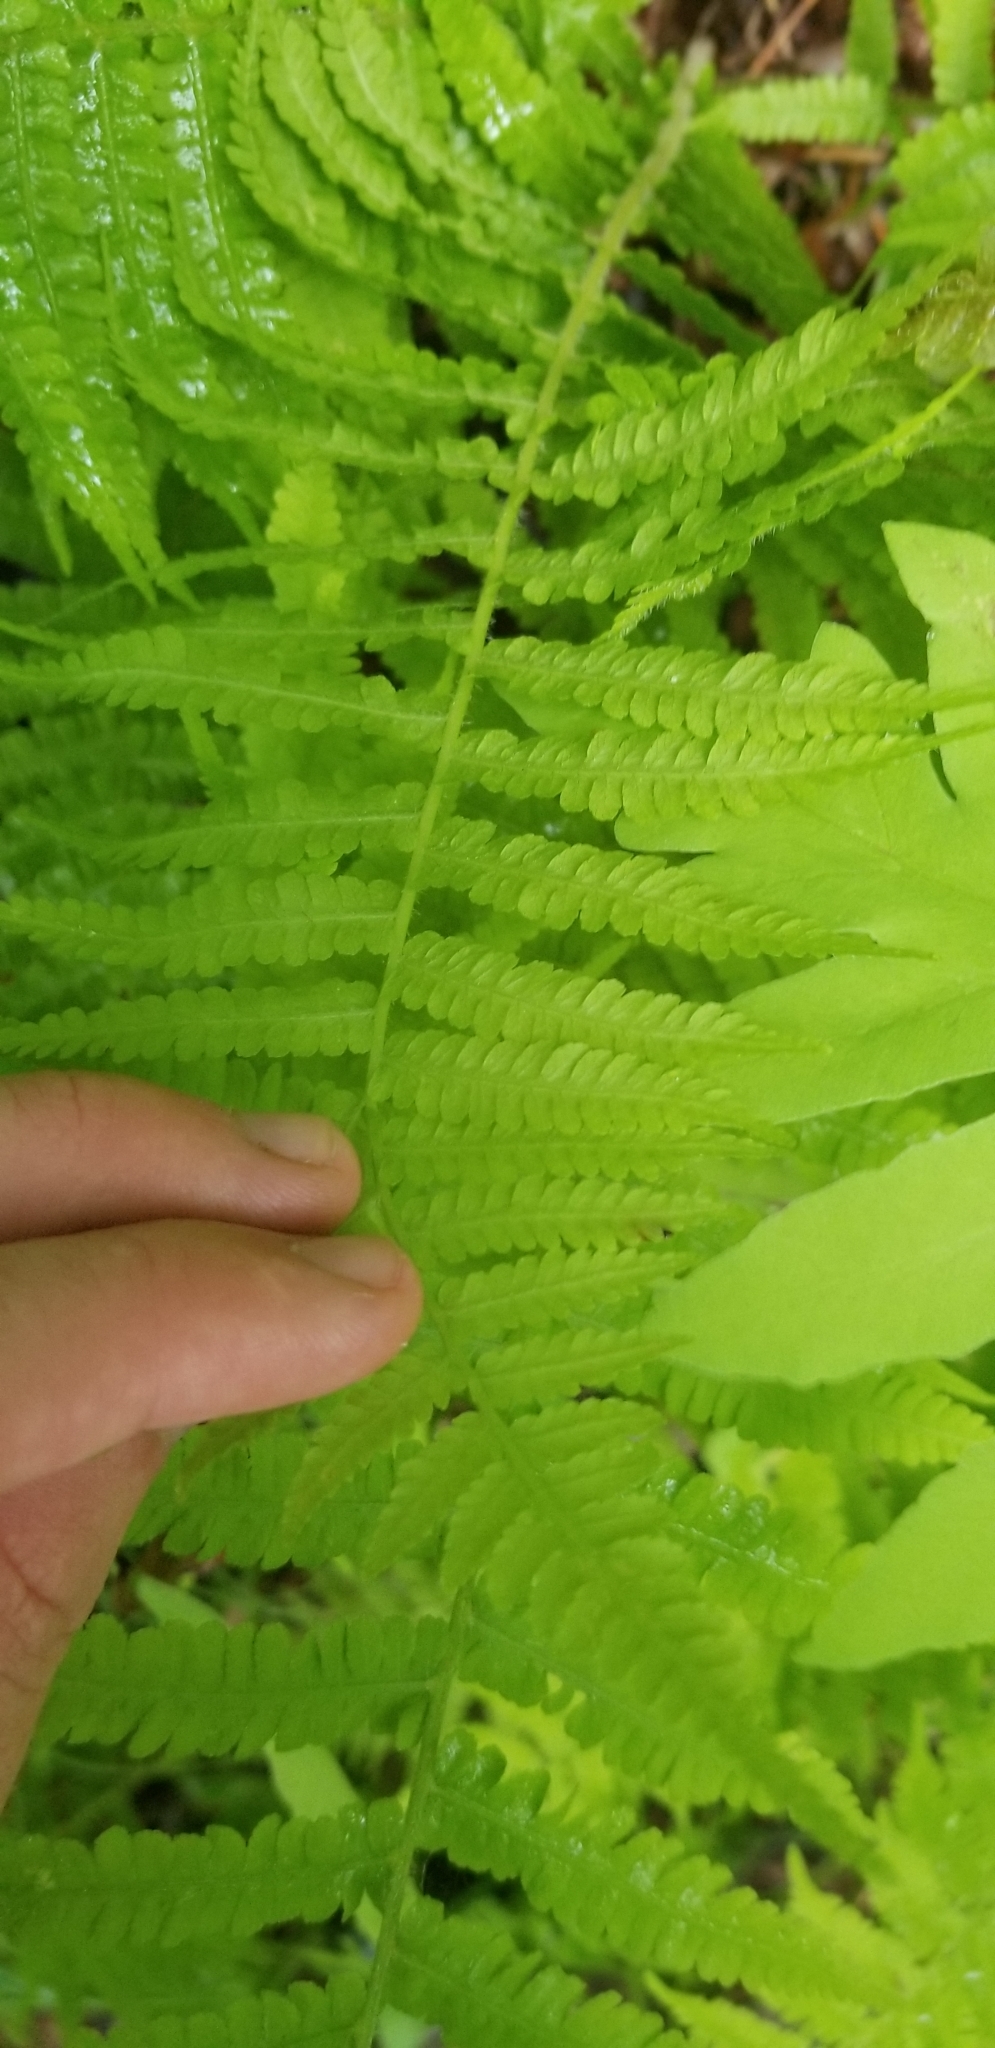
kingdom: Plantae
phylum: Tracheophyta
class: Polypodiopsida
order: Polypodiales
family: Athyriaceae
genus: Deparia
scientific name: Deparia acrostichoides
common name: Silver false spleenwort
